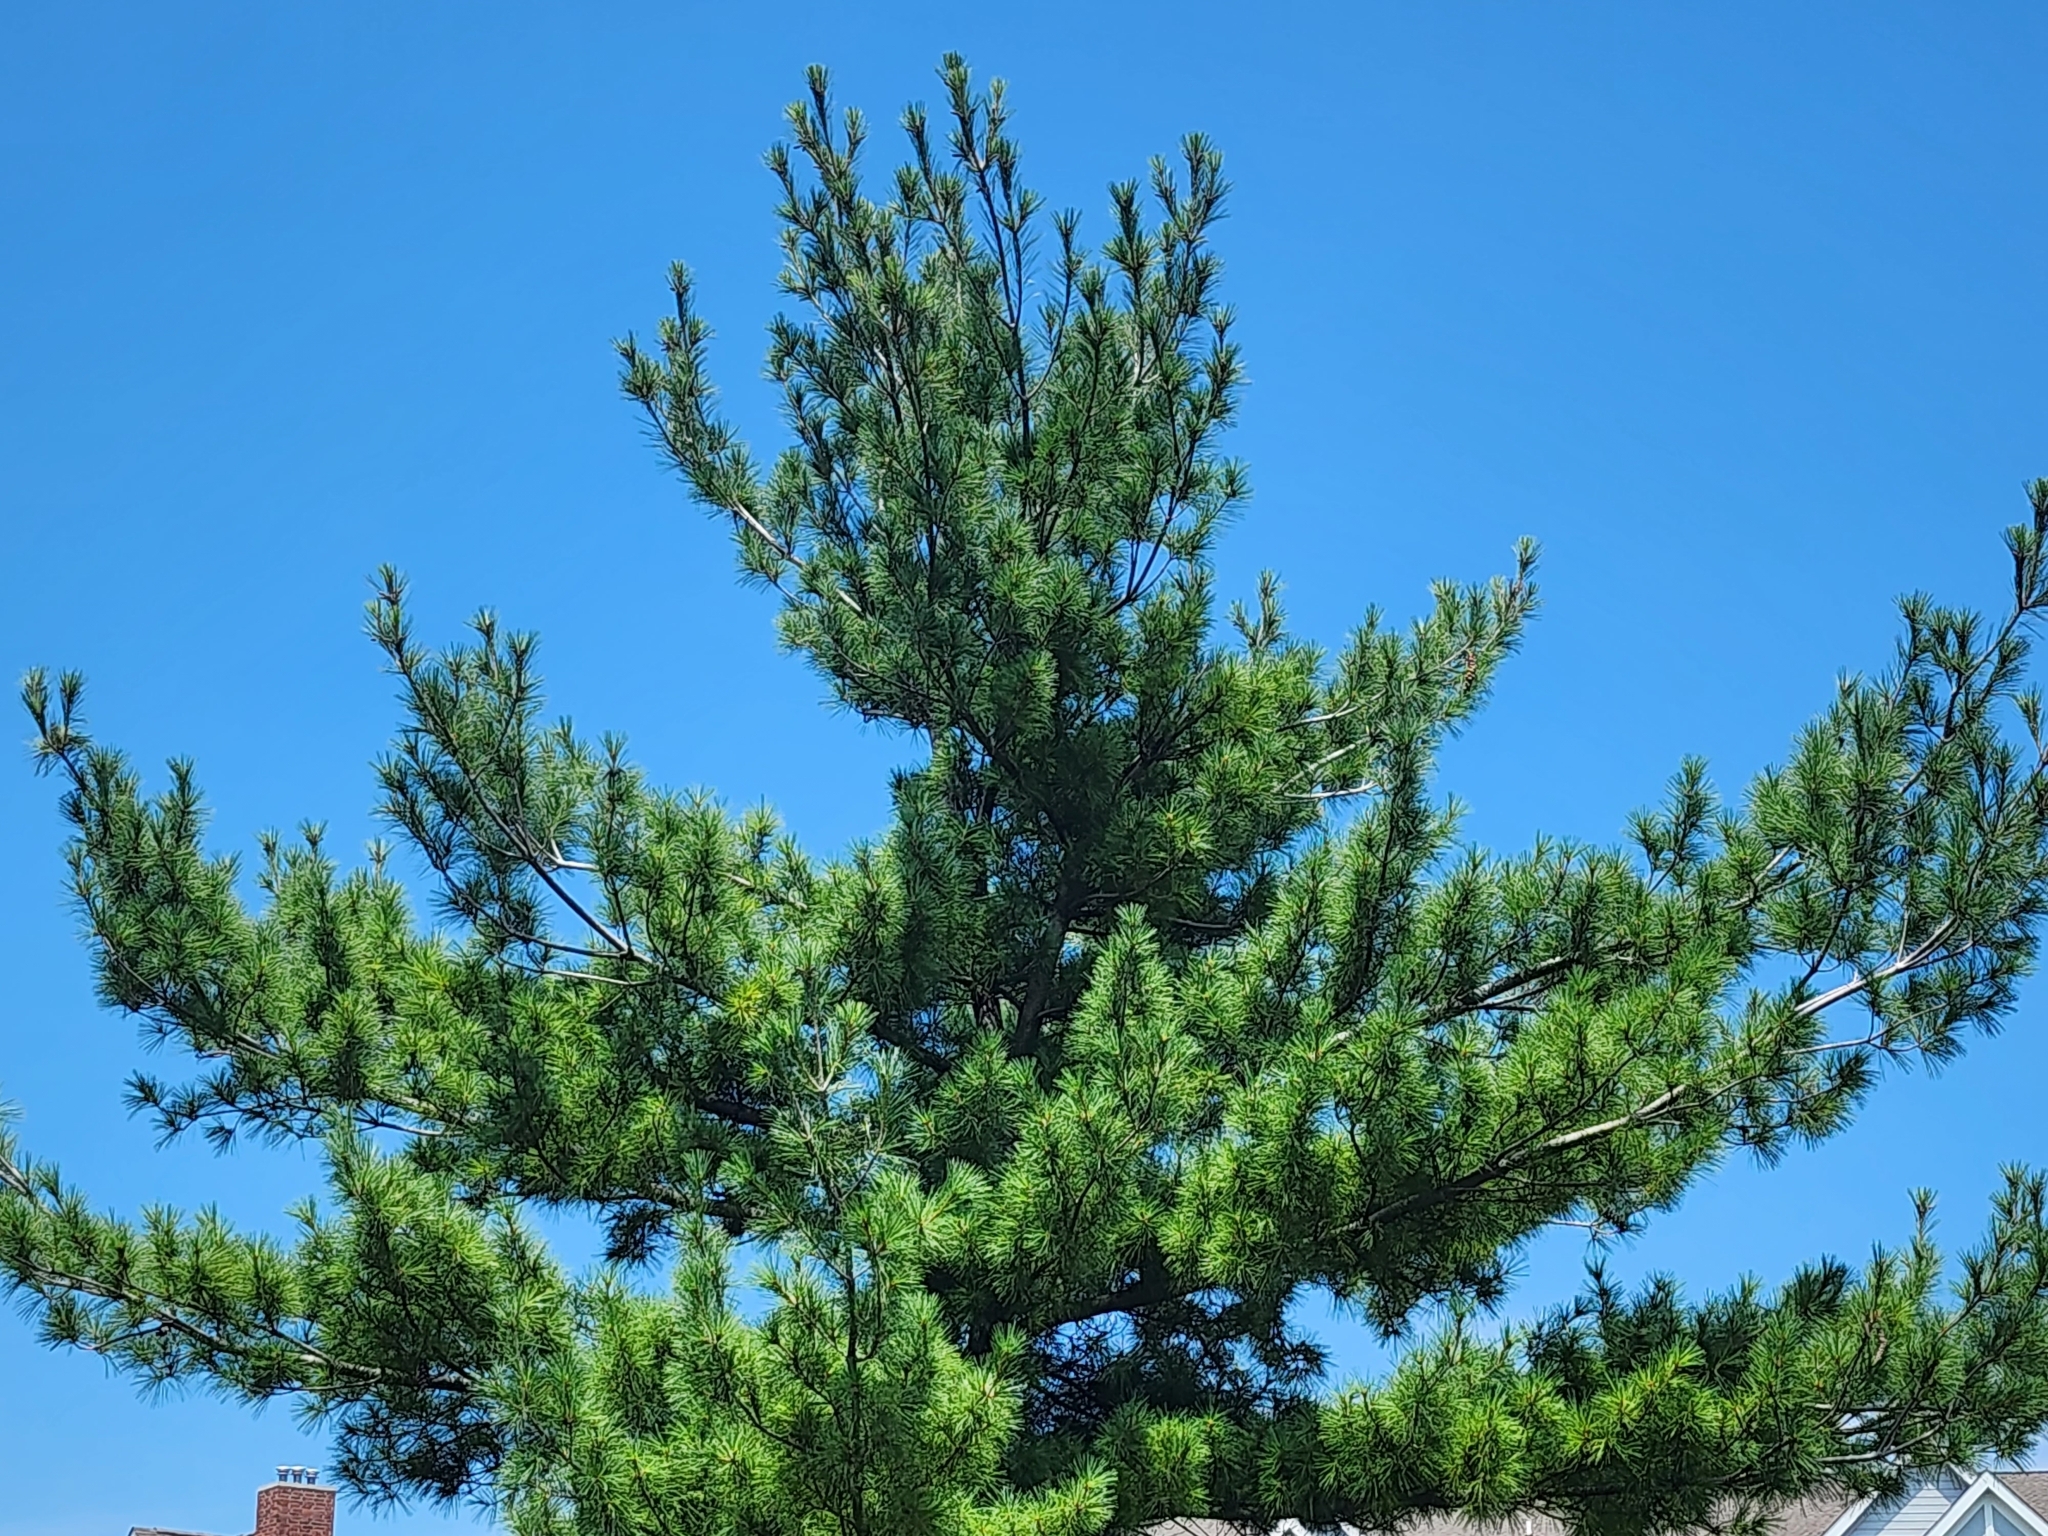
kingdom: Plantae
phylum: Tracheophyta
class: Pinopsida
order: Pinales
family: Pinaceae
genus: Pinus
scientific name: Pinus strobus
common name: Weymouth pine
